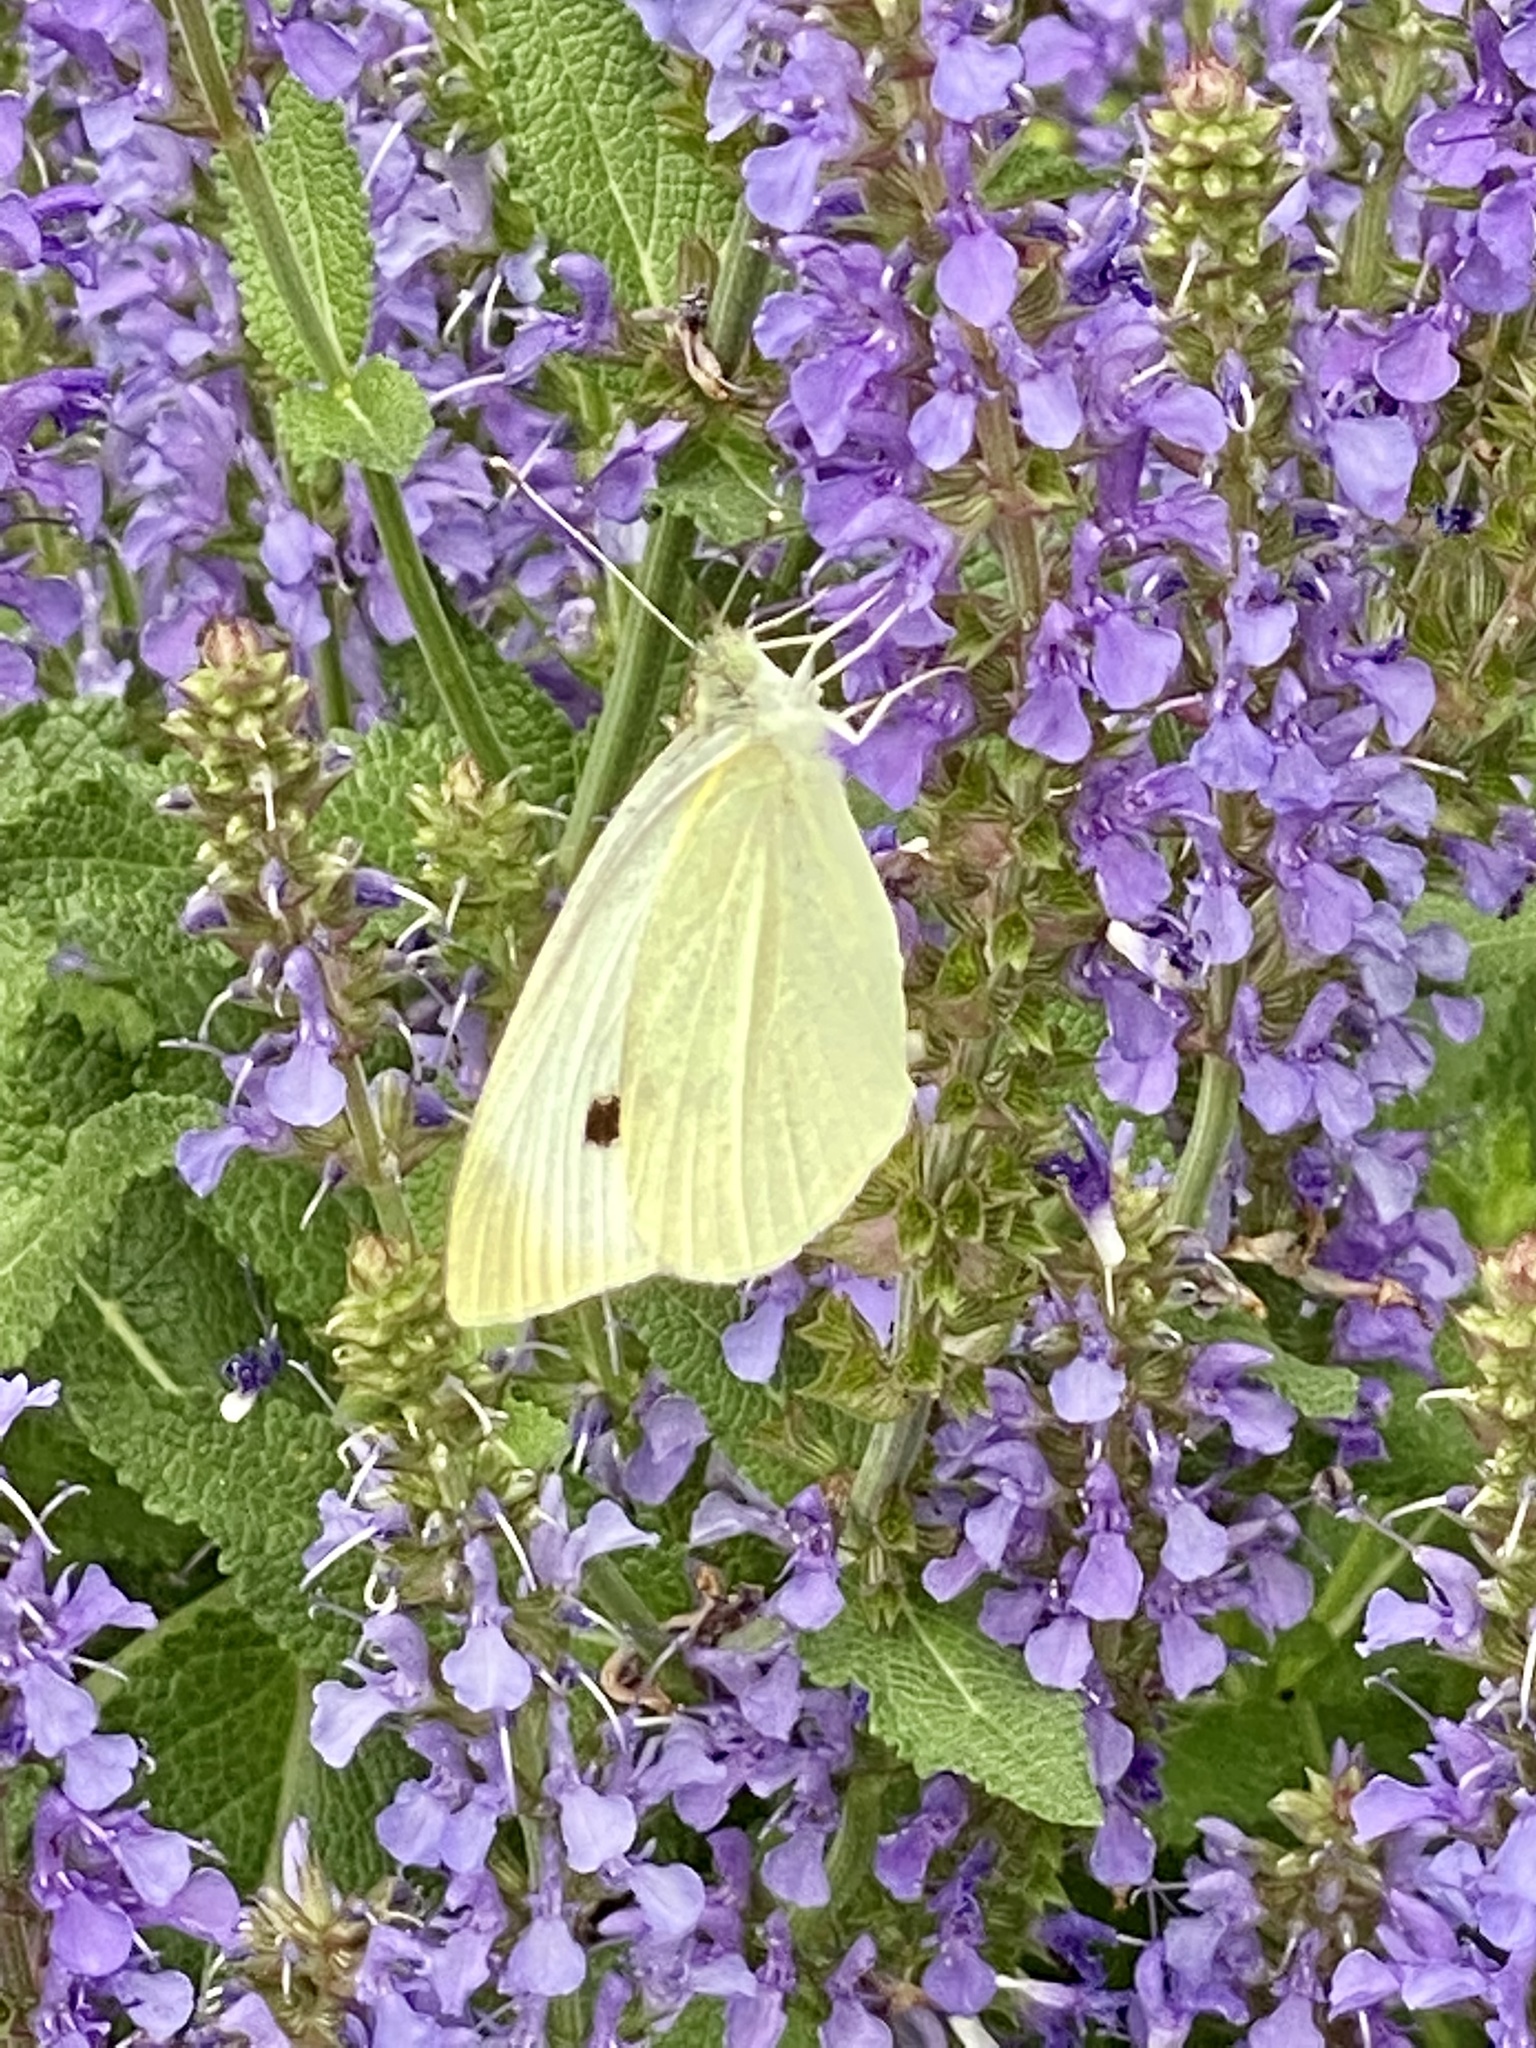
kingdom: Animalia
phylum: Arthropoda
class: Insecta
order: Lepidoptera
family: Pieridae
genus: Pieris
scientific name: Pieris rapae
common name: Small white
